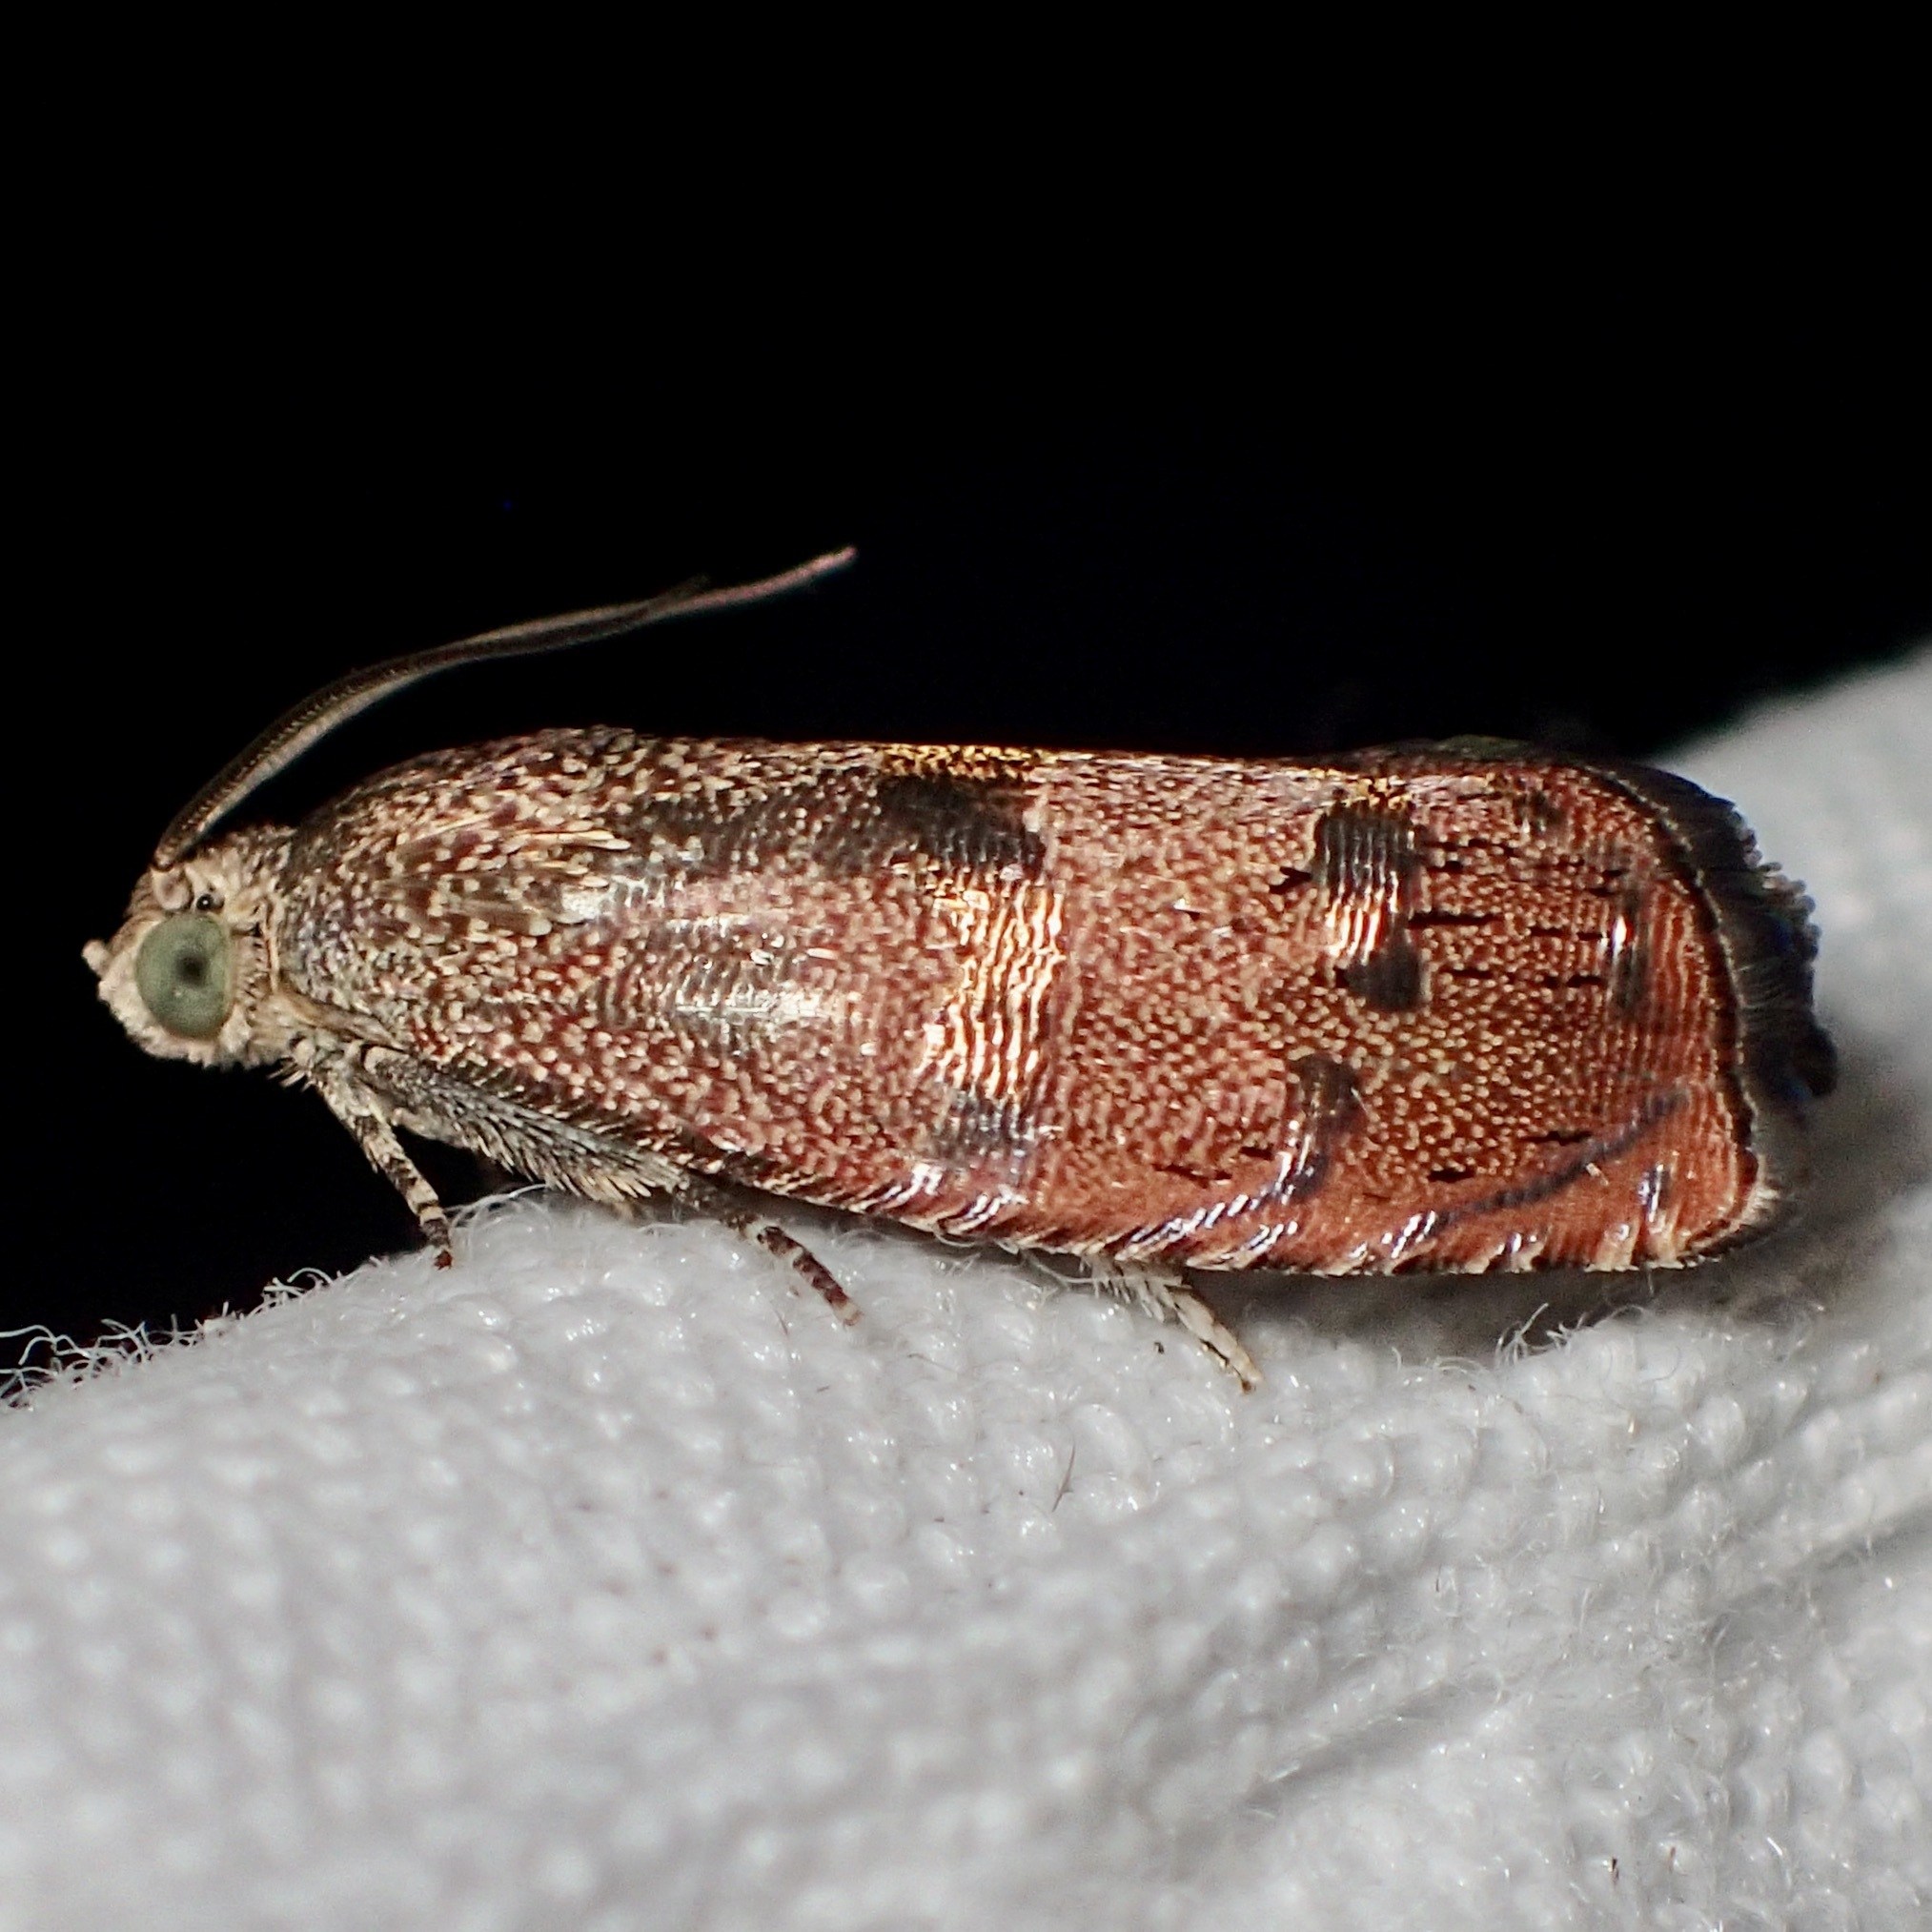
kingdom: Animalia
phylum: Arthropoda
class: Insecta
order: Lepidoptera
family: Tortricidae
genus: Cydia
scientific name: Cydia latiferreana
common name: Filbertworm moth
